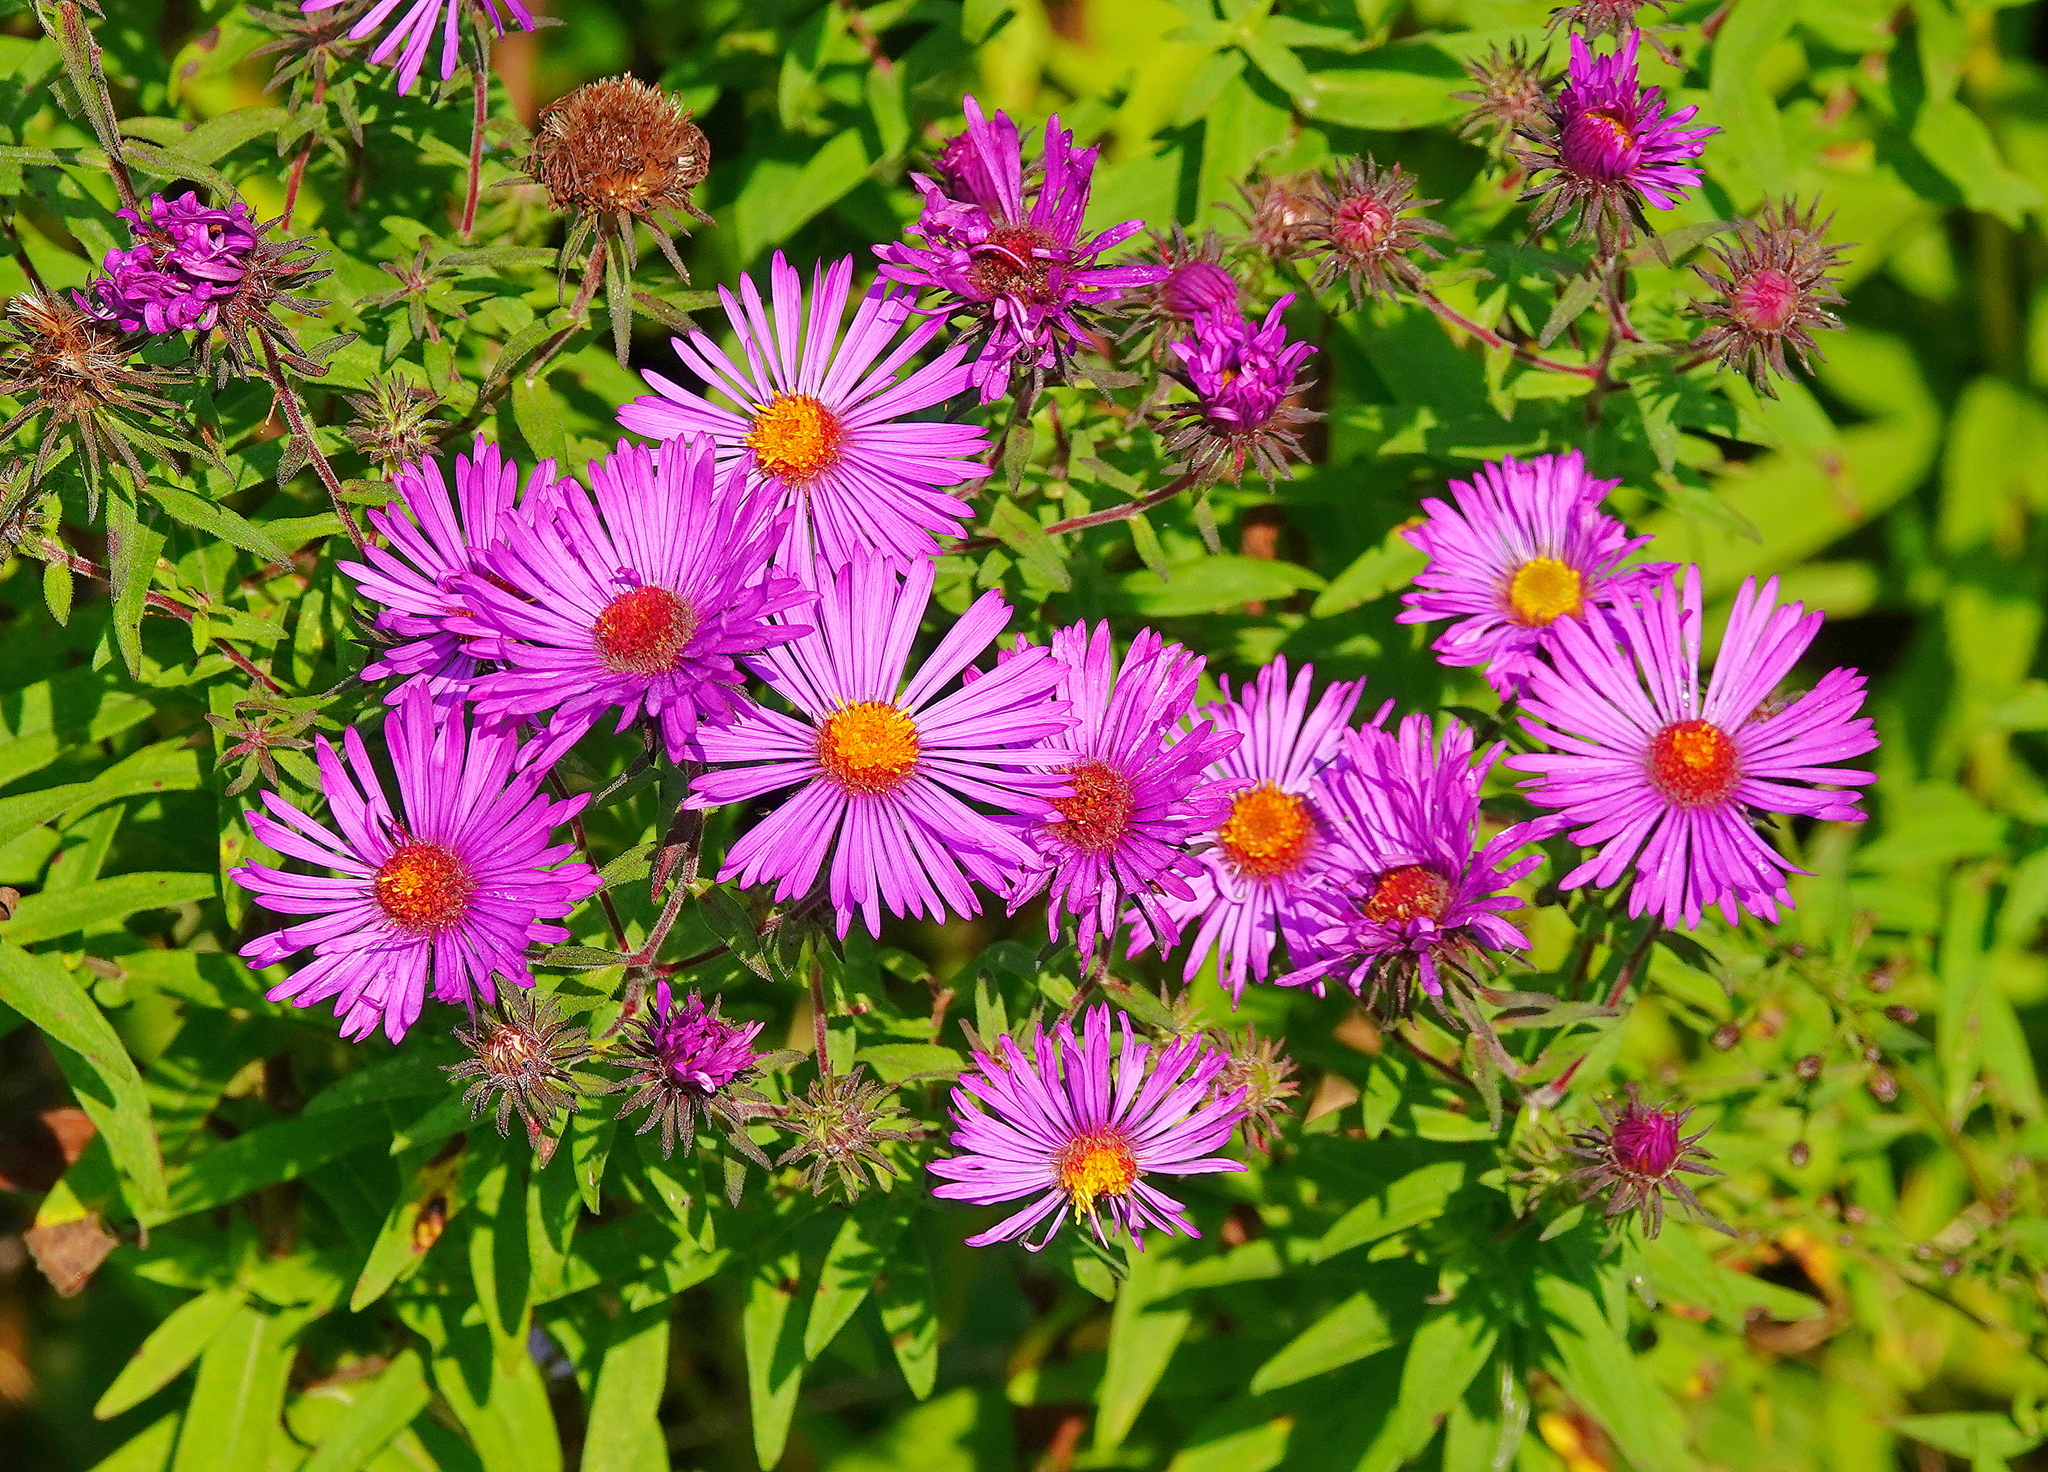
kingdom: Plantae
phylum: Tracheophyta
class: Magnoliopsida
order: Asterales
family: Asteraceae
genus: Symphyotrichum
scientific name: Symphyotrichum novae-angliae
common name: Michaelmas daisy
